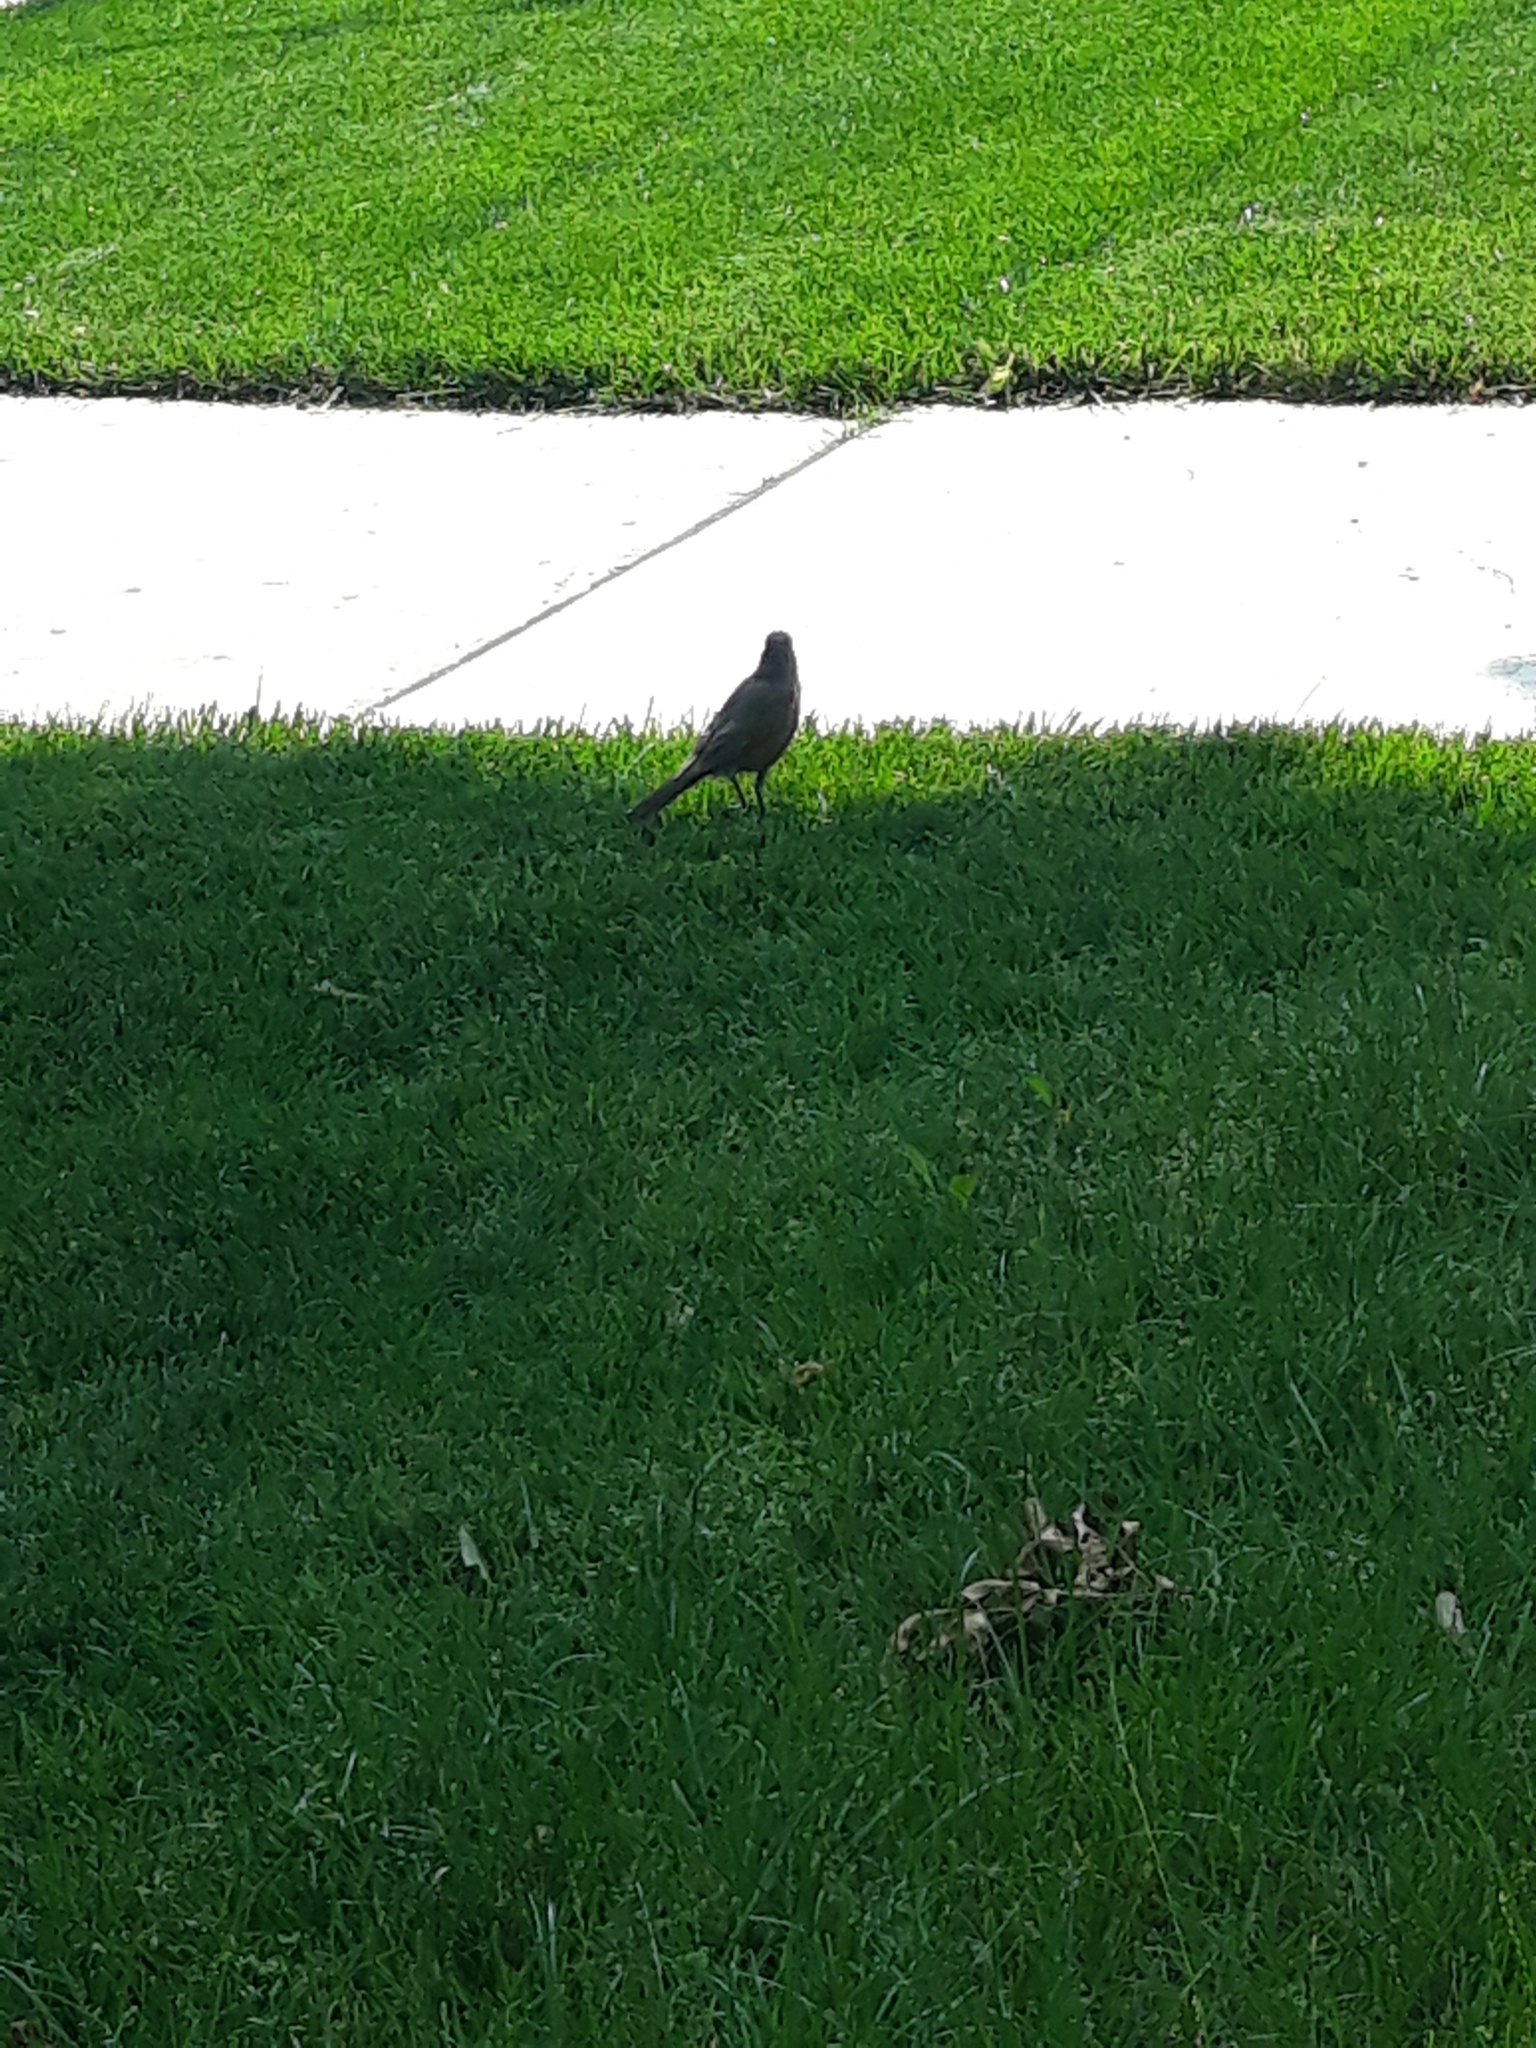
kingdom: Animalia
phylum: Chordata
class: Aves
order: Passeriformes
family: Turdidae
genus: Turdus
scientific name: Turdus migratorius
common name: American robin
